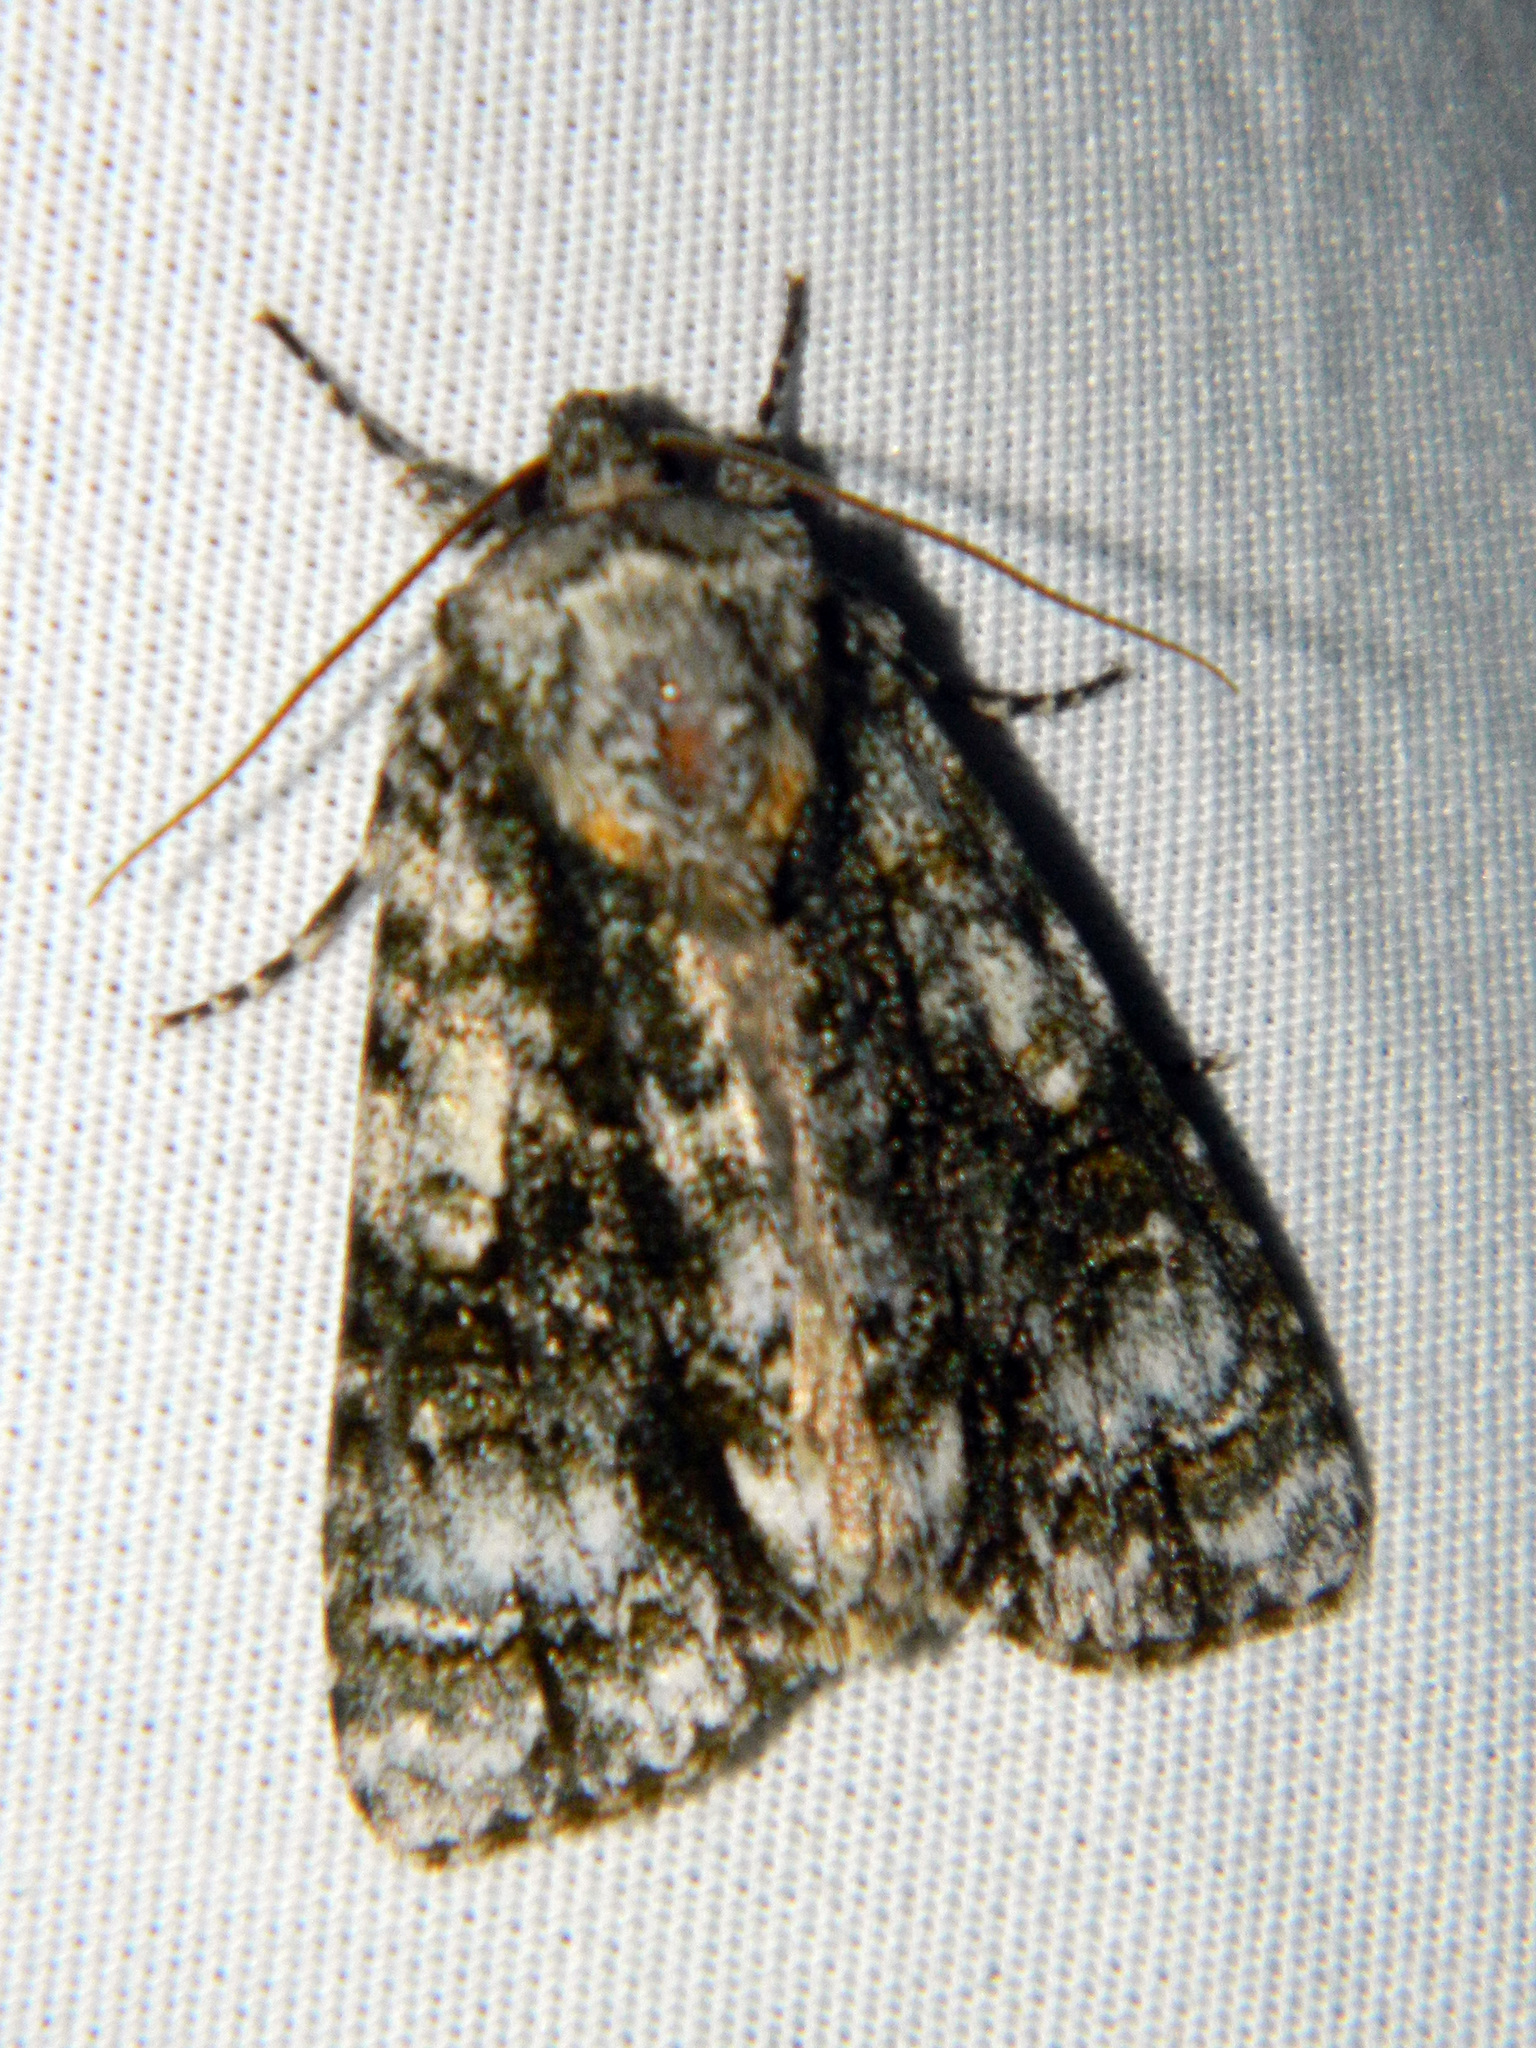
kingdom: Animalia
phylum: Arthropoda
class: Insecta
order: Lepidoptera
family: Noctuidae
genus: Acronicta
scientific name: Acronicta superans
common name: Splendid dagger
